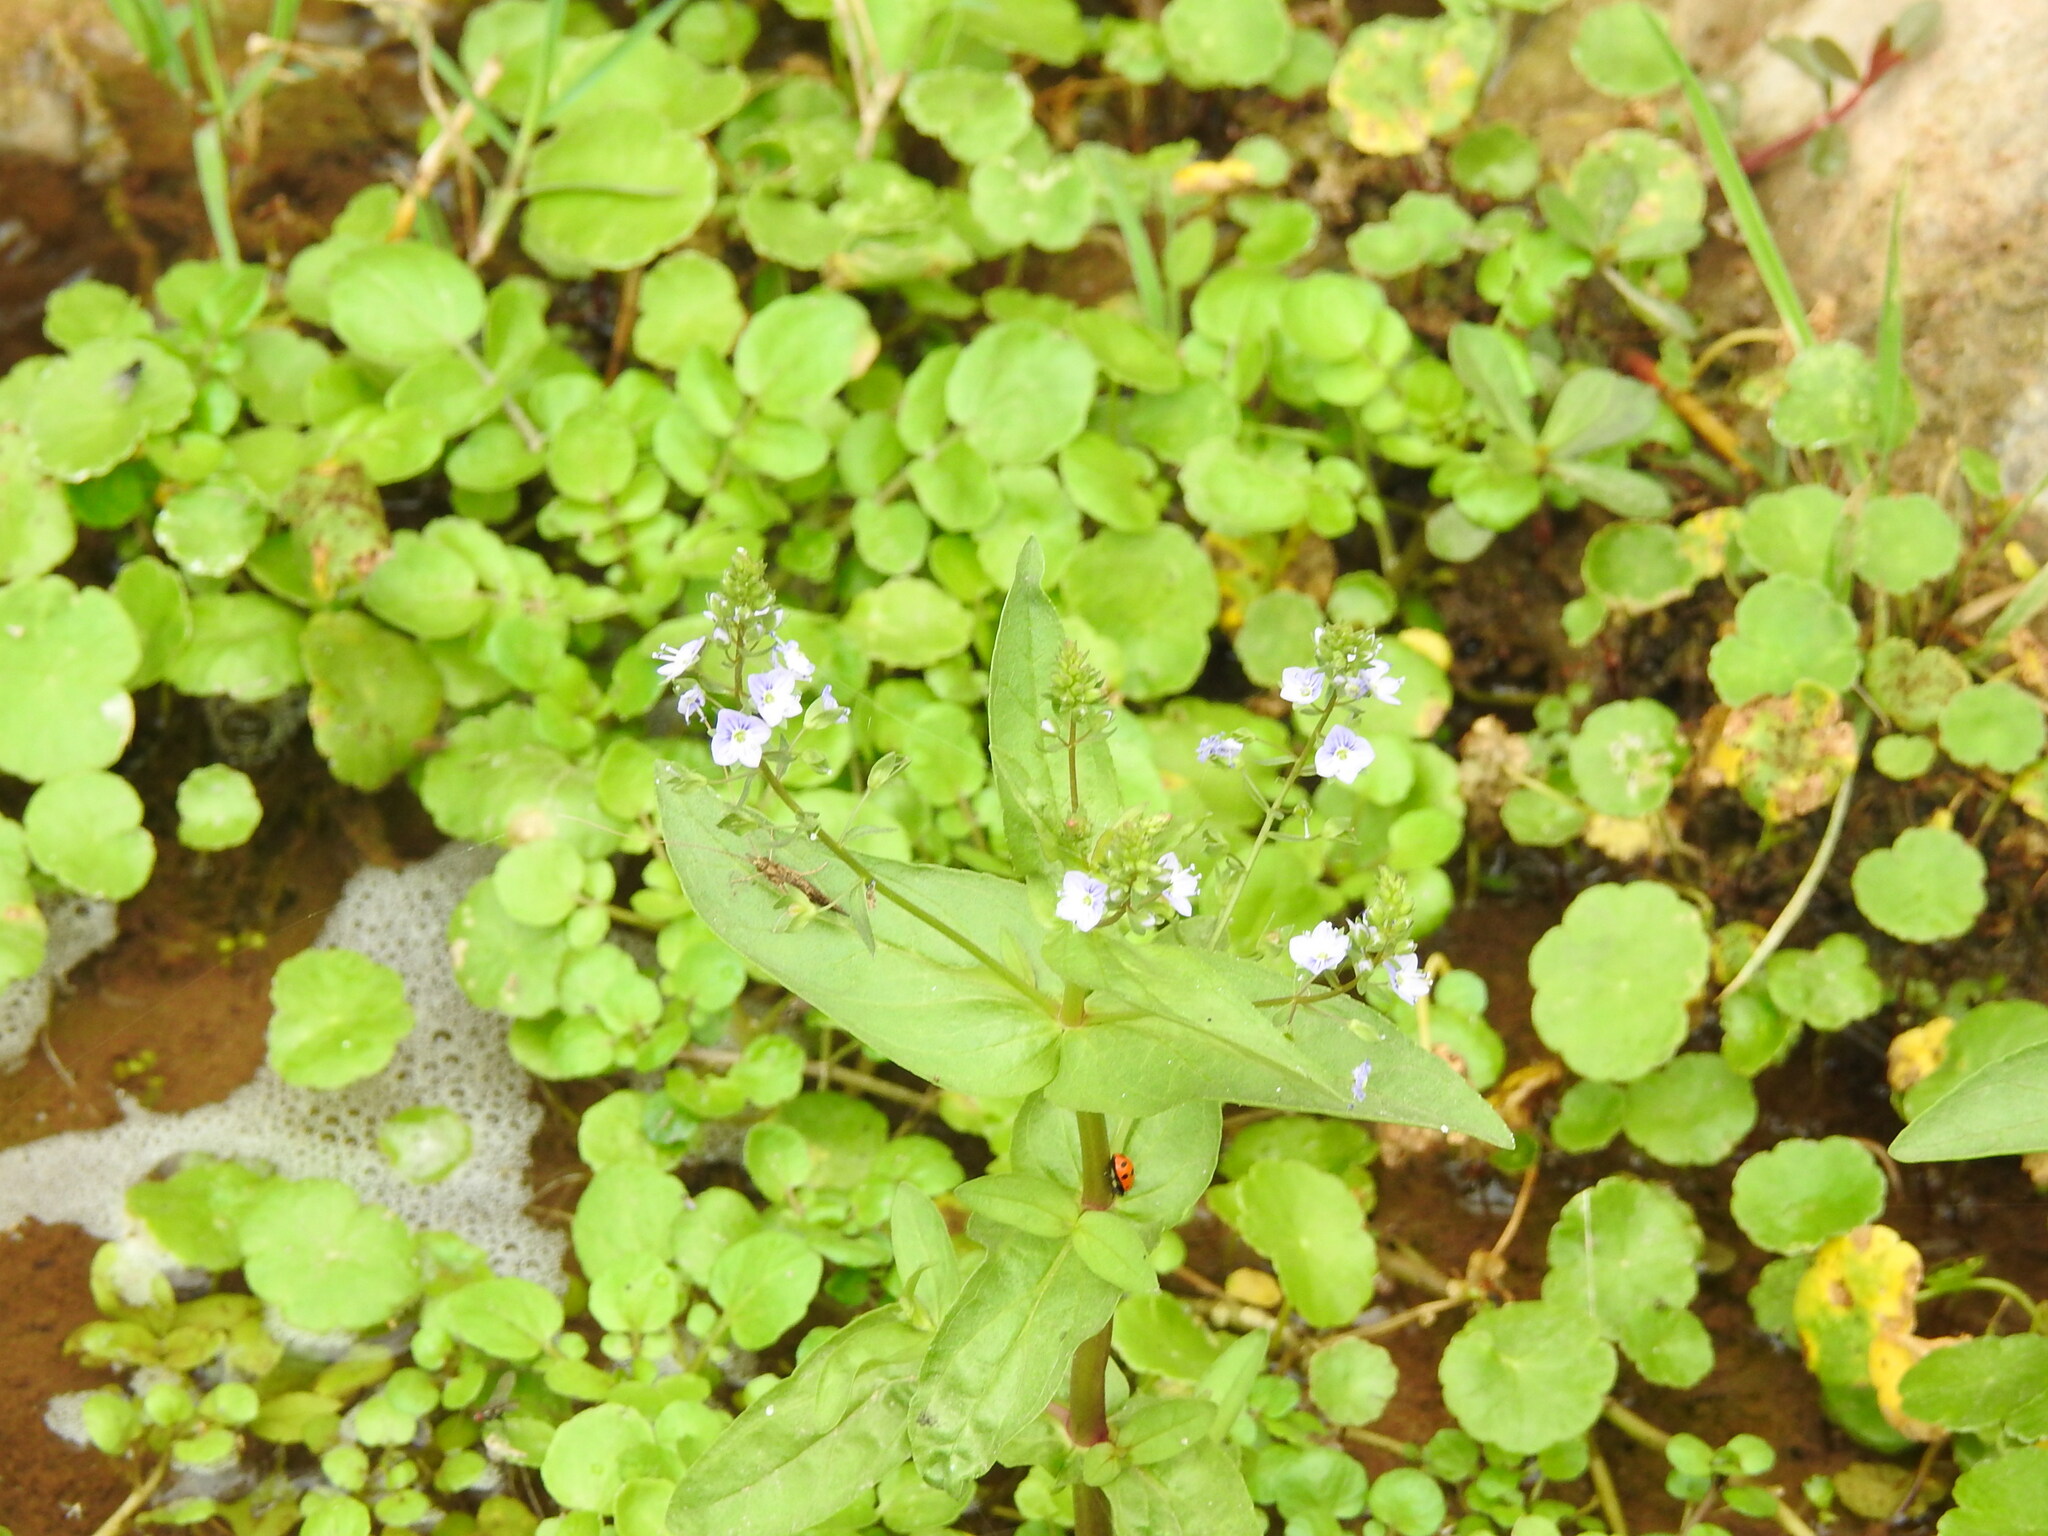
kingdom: Plantae
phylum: Tracheophyta
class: Magnoliopsida
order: Lamiales
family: Plantaginaceae
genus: Veronica
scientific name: Veronica anagallis-aquatica
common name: Water speedwell
